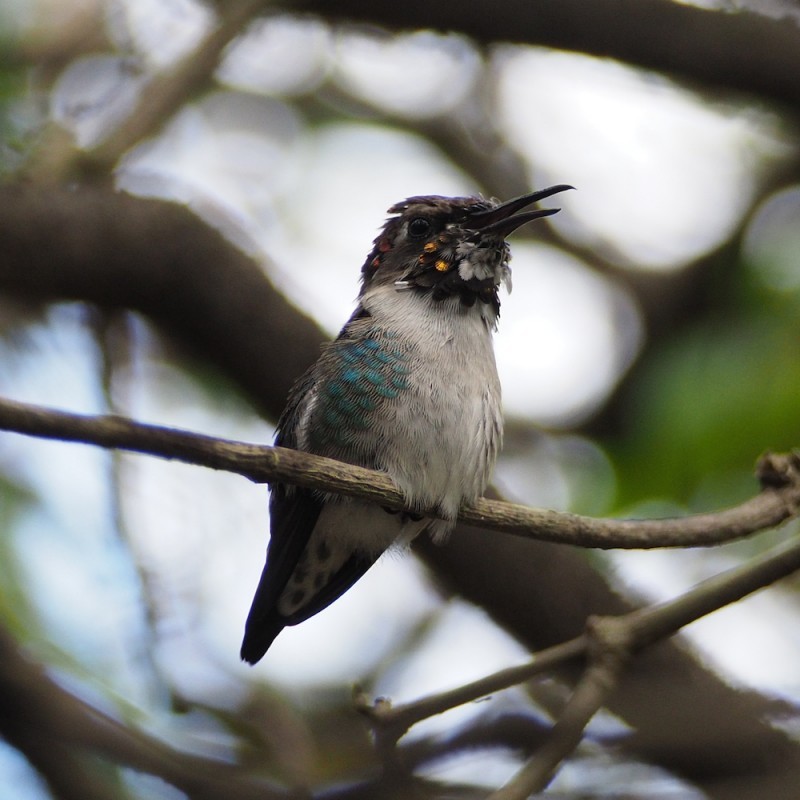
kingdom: Animalia
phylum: Chordata
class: Aves
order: Apodiformes
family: Trochilidae
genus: Mellisuga
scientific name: Mellisuga helenae
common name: Bee hummingbird
